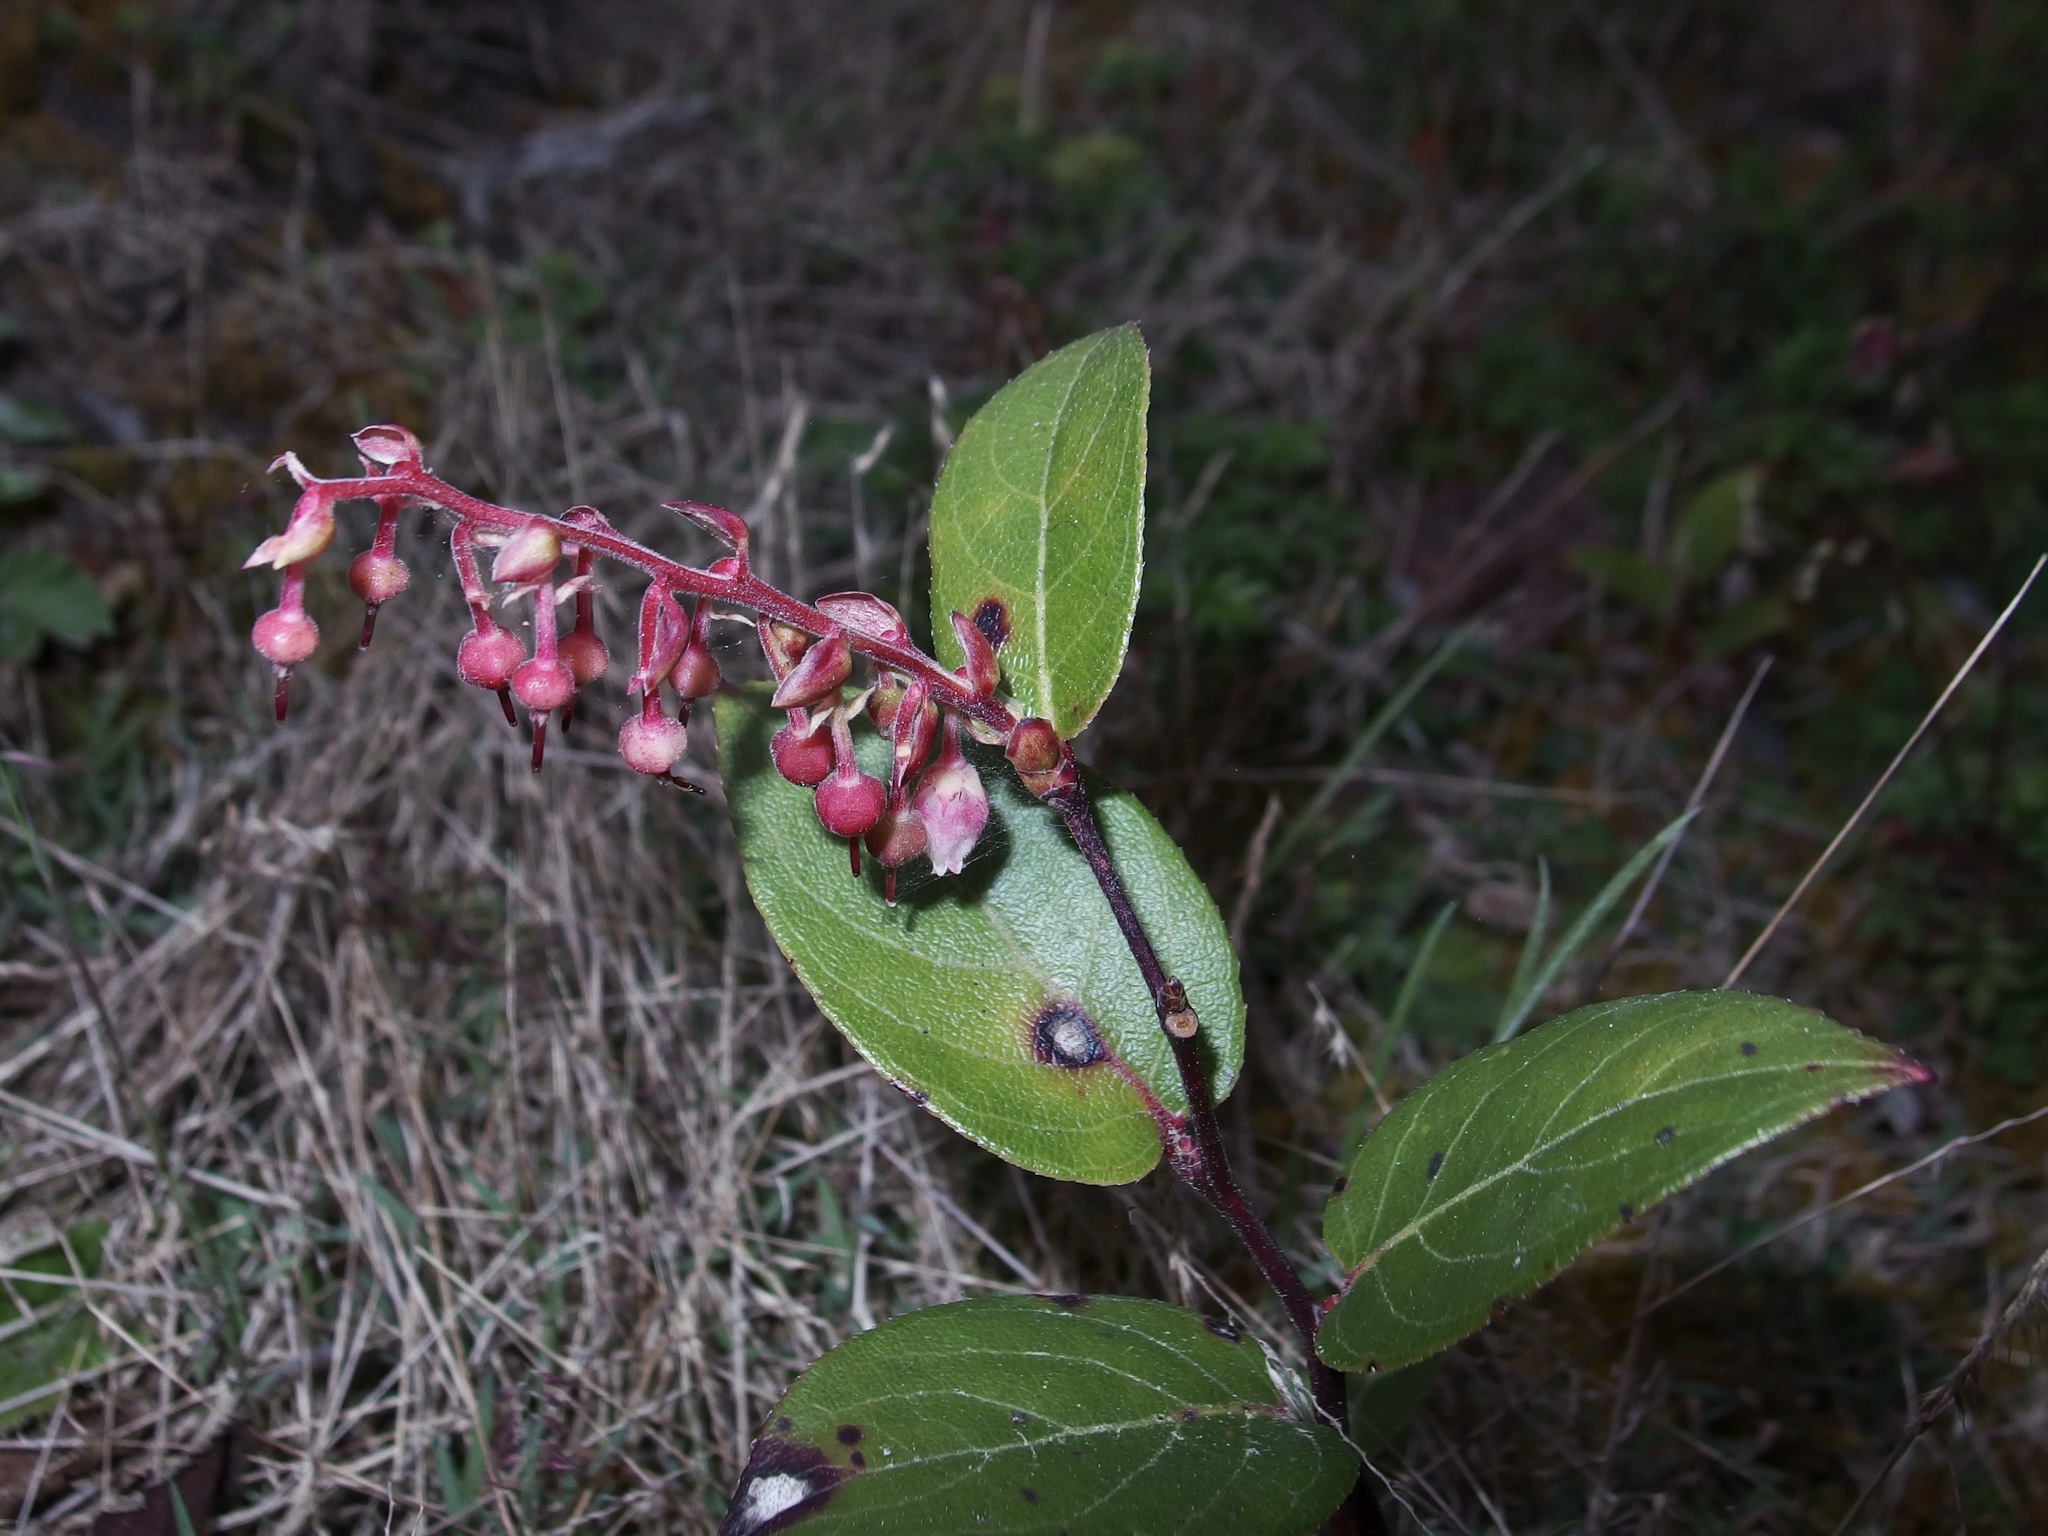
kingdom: Plantae
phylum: Tracheophyta
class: Magnoliopsida
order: Ericales
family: Ericaceae
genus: Gaultheria
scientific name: Gaultheria erecta
